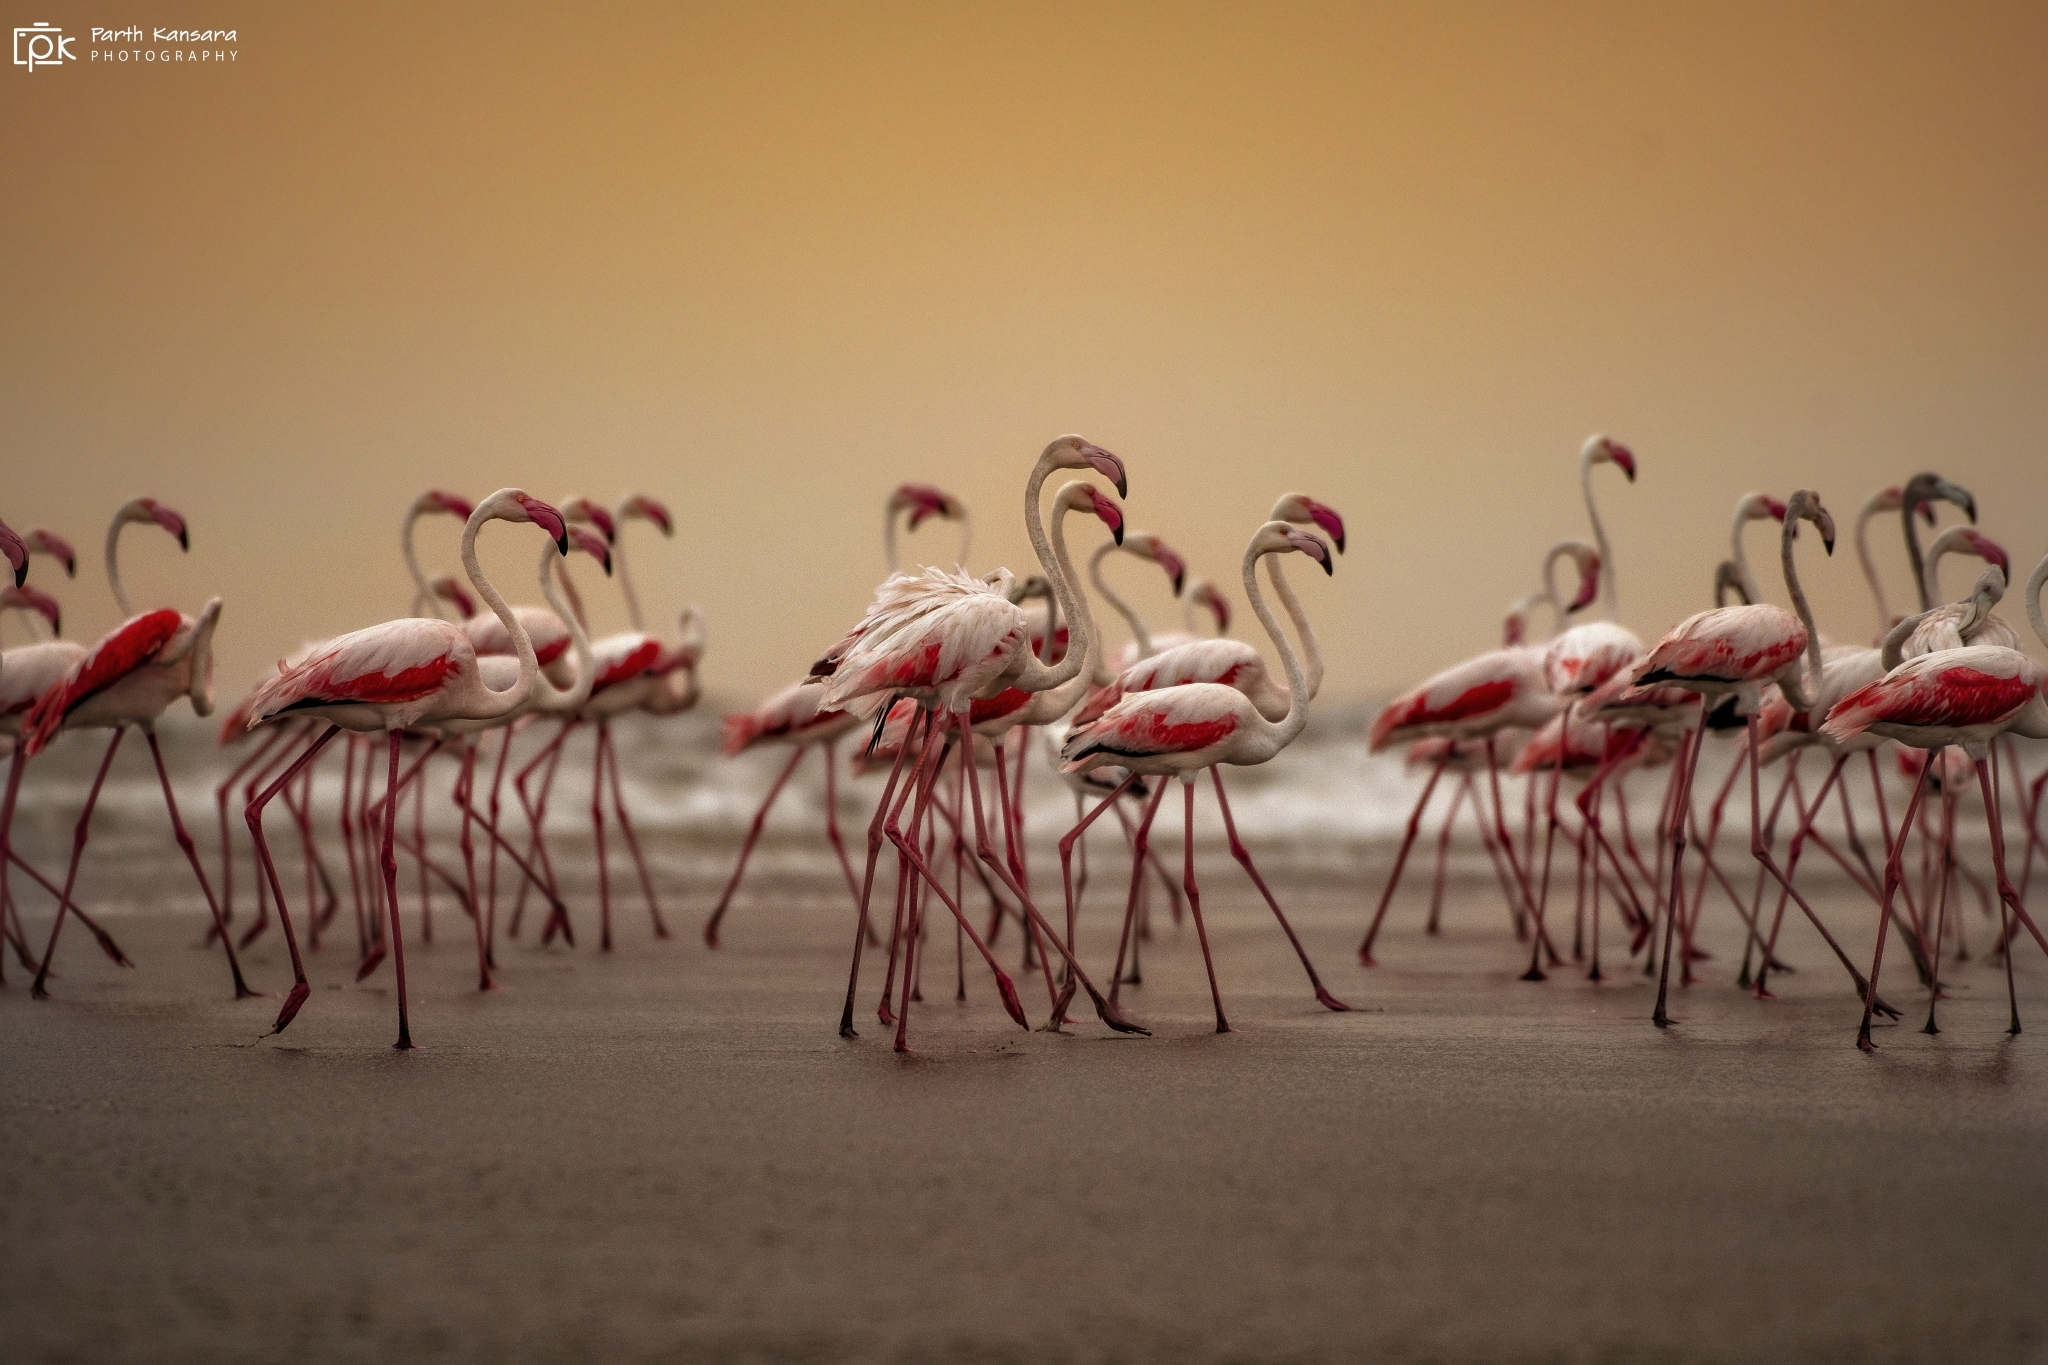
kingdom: Animalia
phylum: Chordata
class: Aves
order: Phoenicopteriformes
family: Phoenicopteridae
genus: Phoenicopterus
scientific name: Phoenicopterus roseus
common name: Greater flamingo
